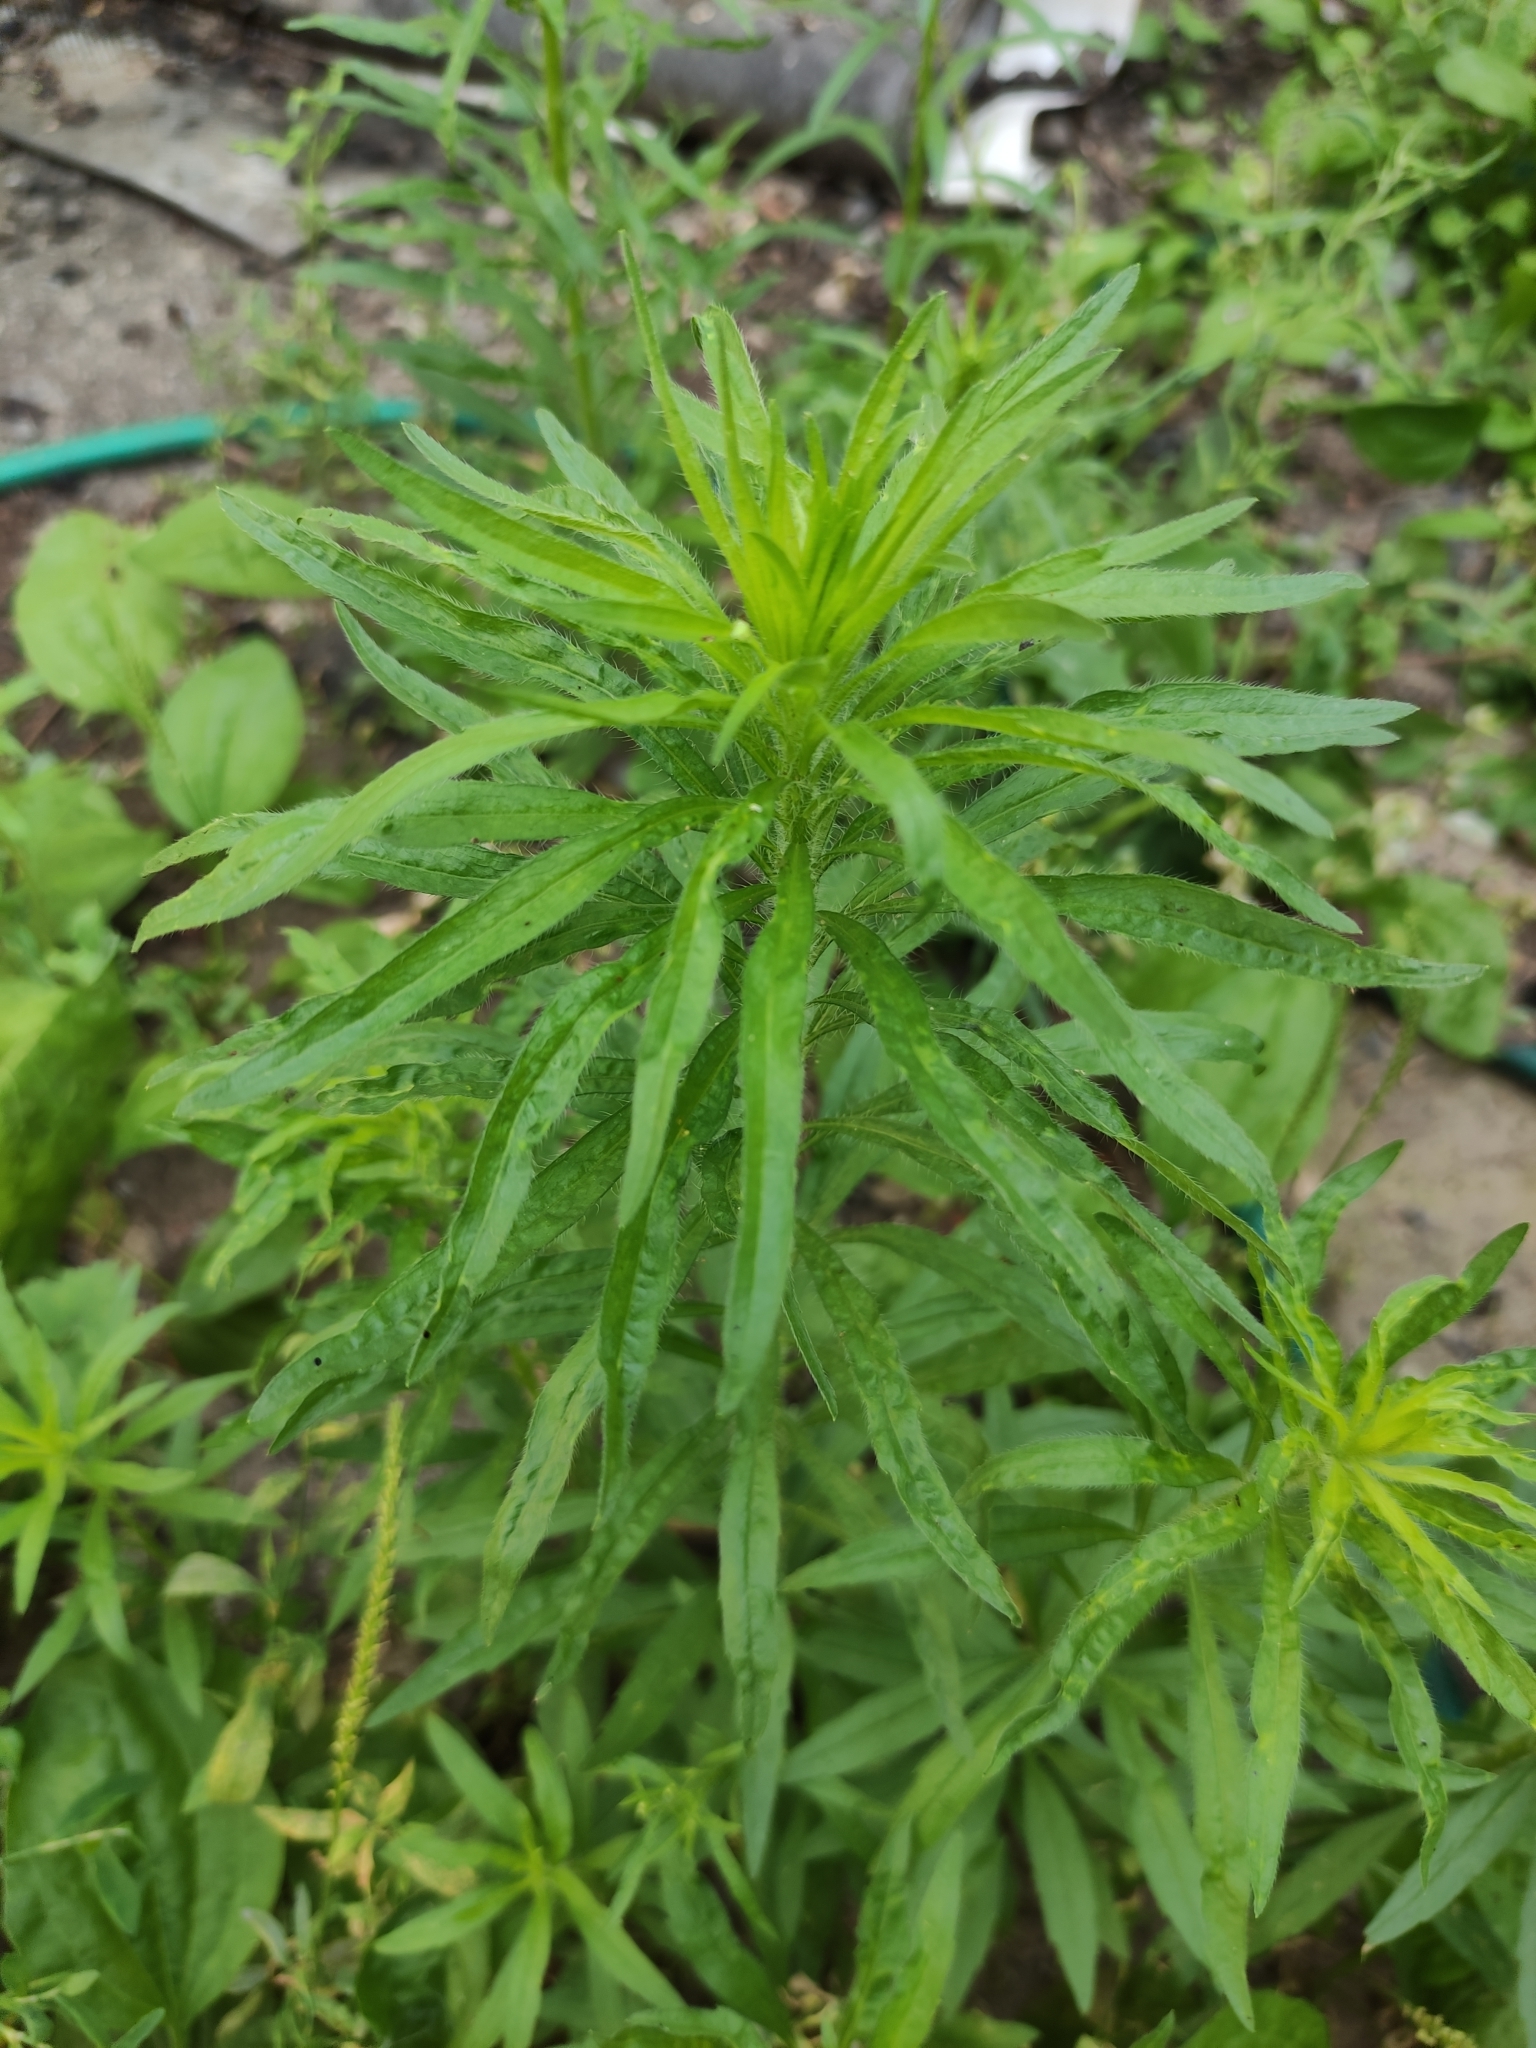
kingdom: Plantae
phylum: Tracheophyta
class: Magnoliopsida
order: Asterales
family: Asteraceae
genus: Erigeron
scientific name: Erigeron canadensis
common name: Canadian fleabane
